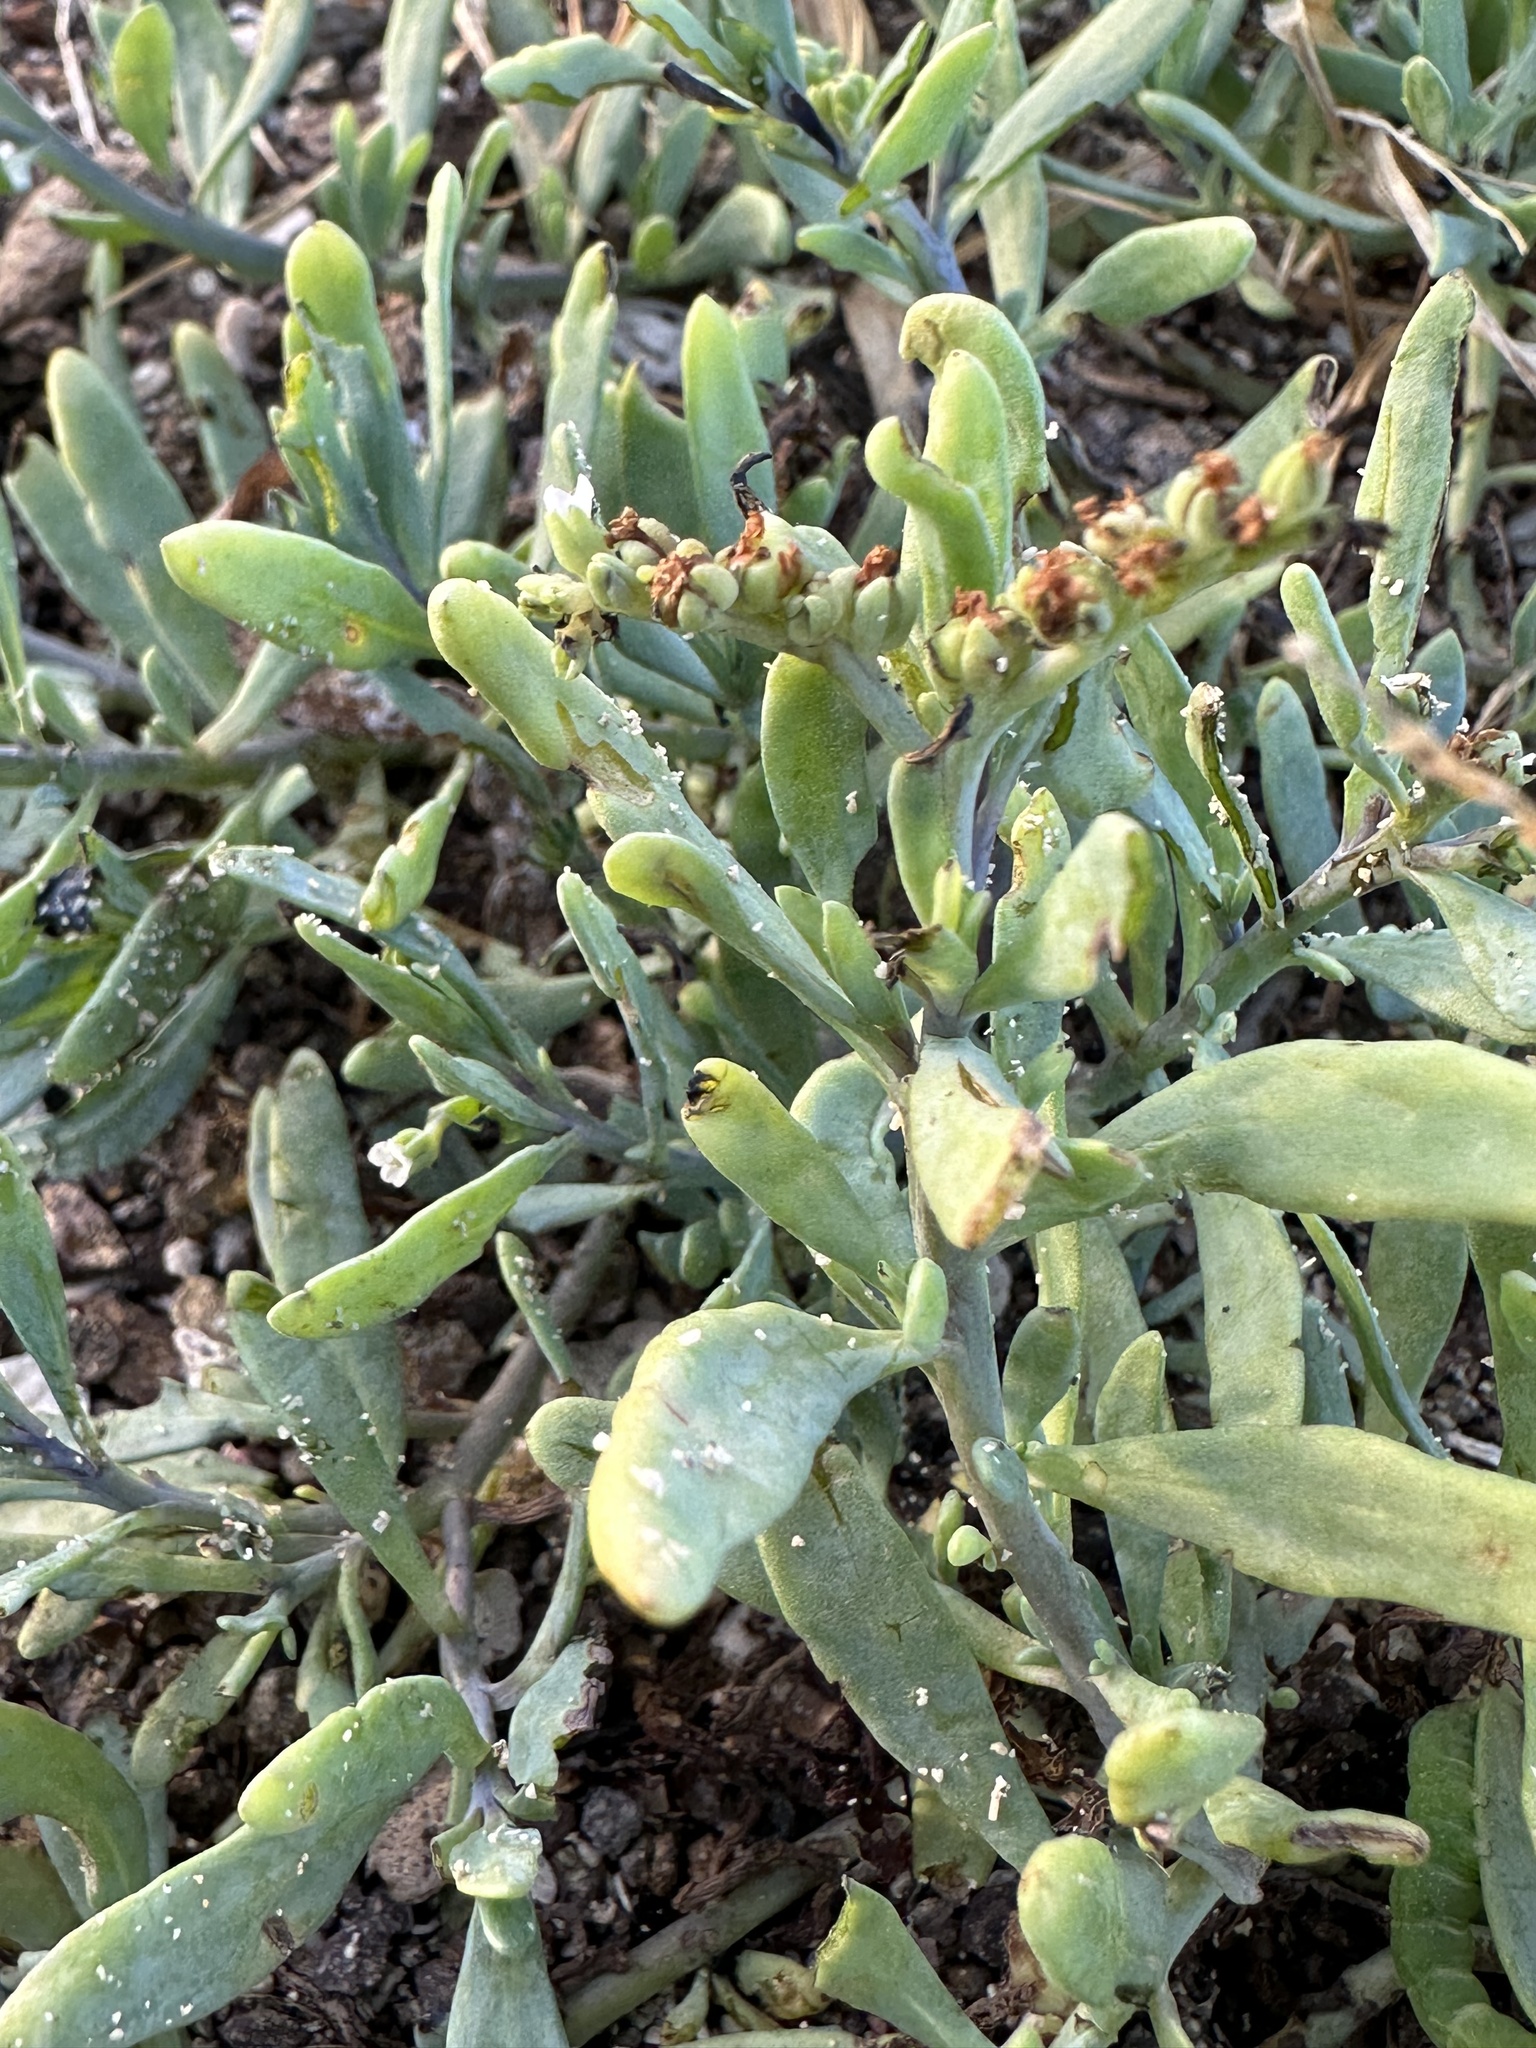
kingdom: Plantae
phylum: Tracheophyta
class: Magnoliopsida
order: Boraginales
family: Heliotropiaceae
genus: Heliotropium
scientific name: Heliotropium curassavicum
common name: Seaside heliotrope
